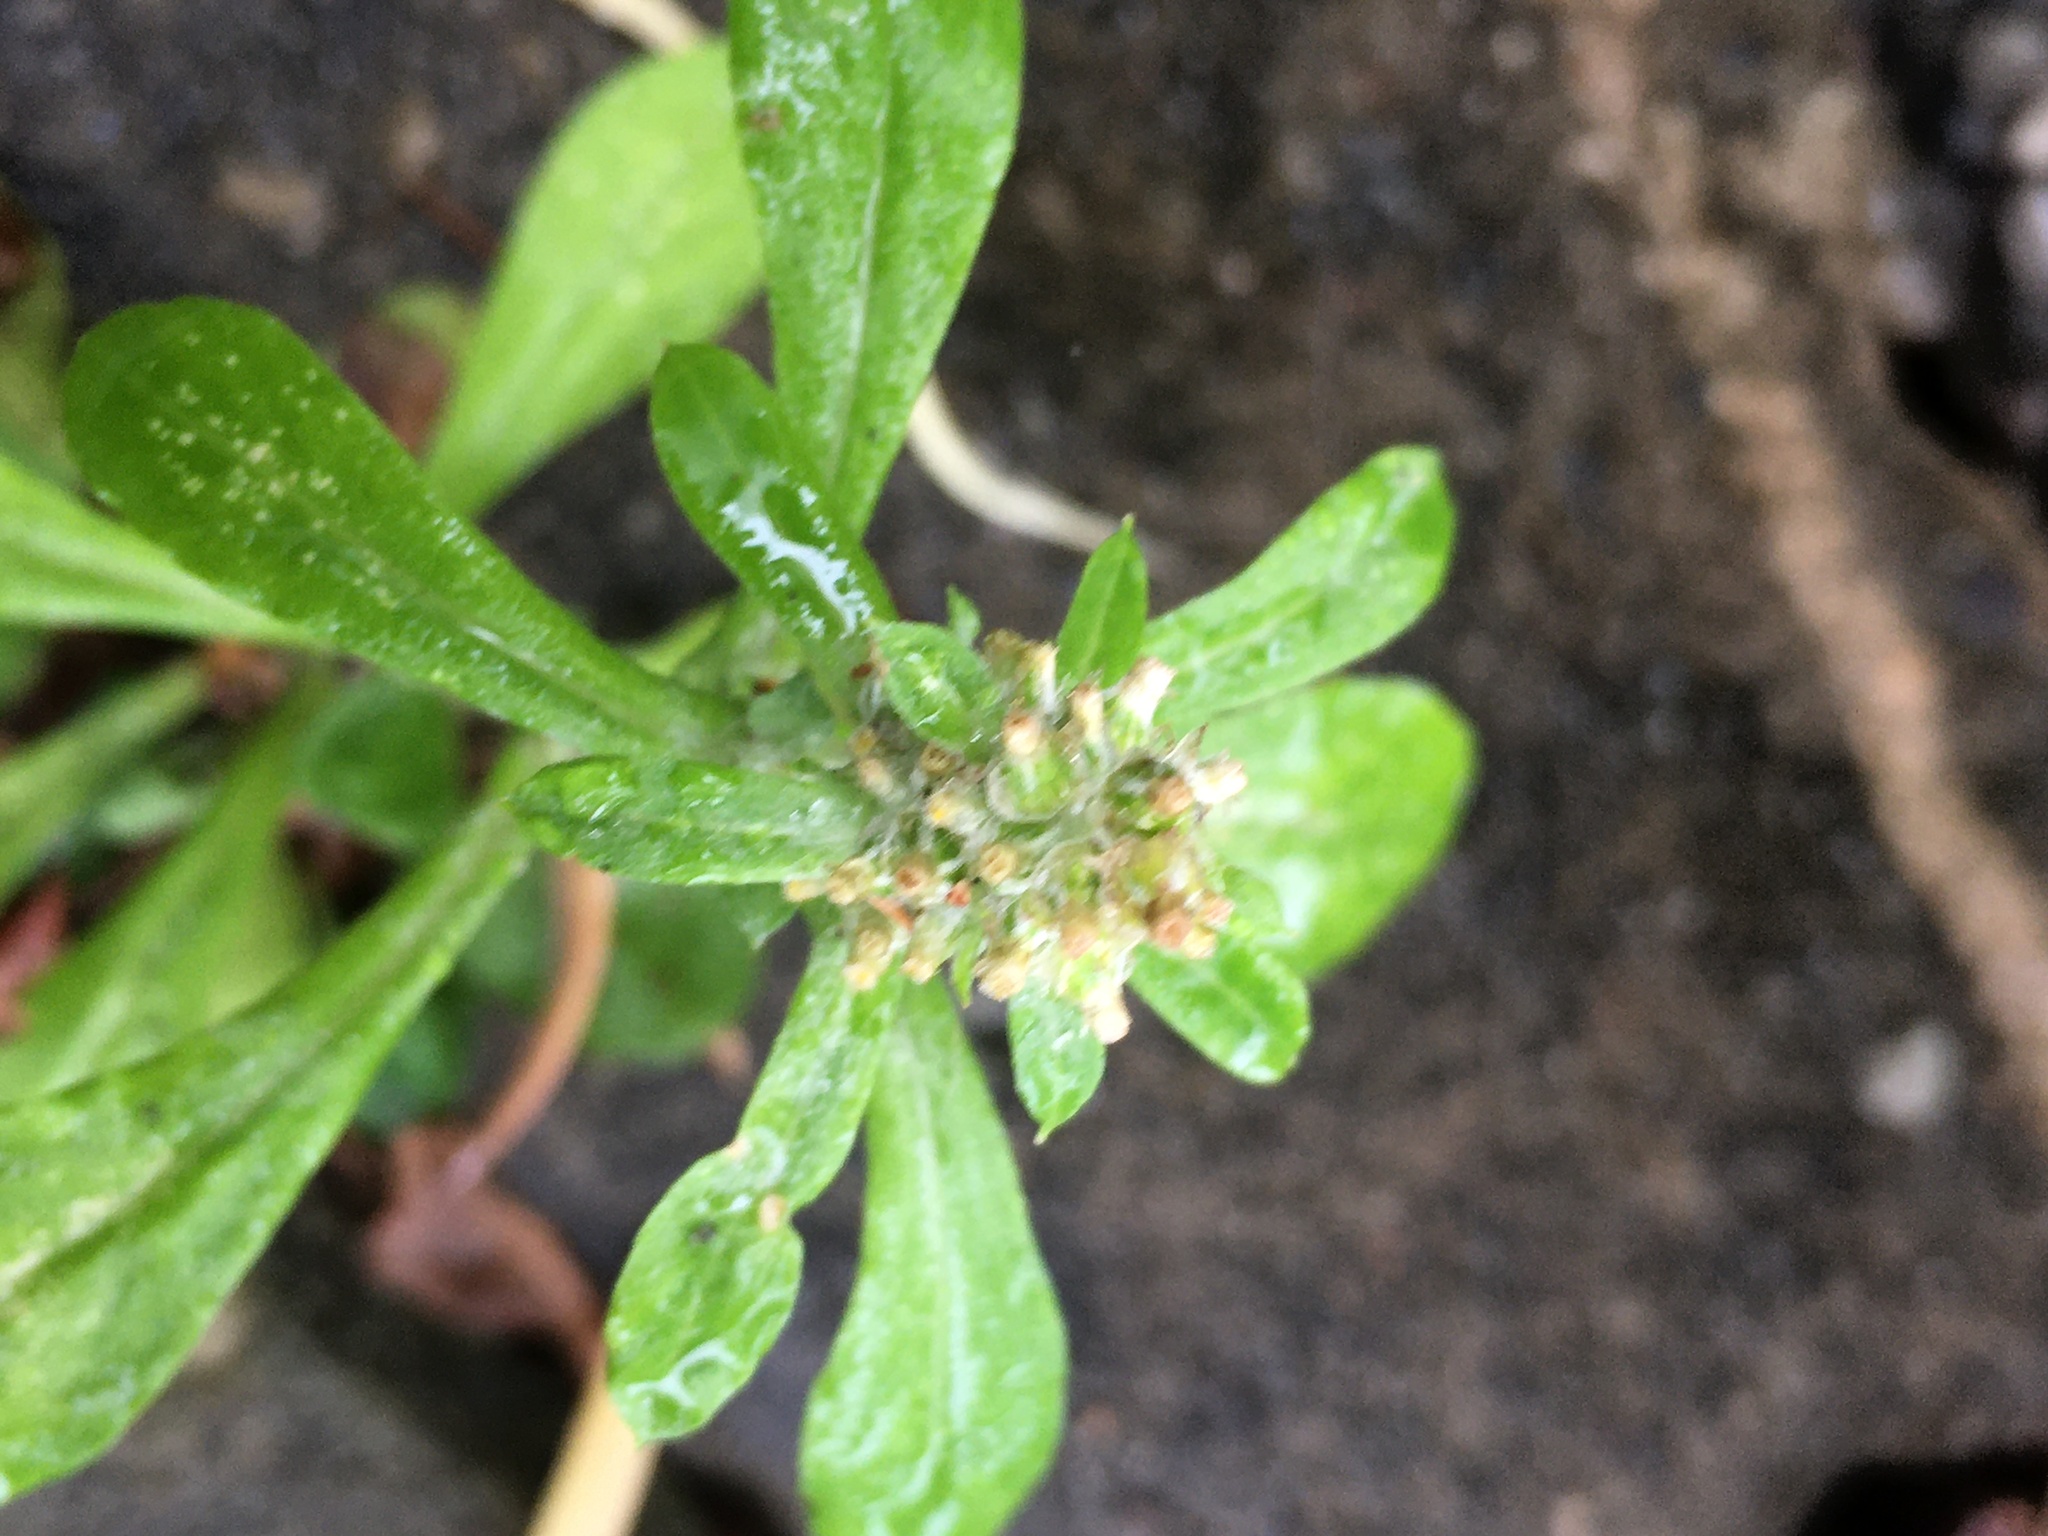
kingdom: Plantae
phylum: Tracheophyta
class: Magnoliopsida
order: Asterales
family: Asteraceae
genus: Gamochaeta
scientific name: Gamochaeta pensylvanica
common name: Pennsylvania everlasting
